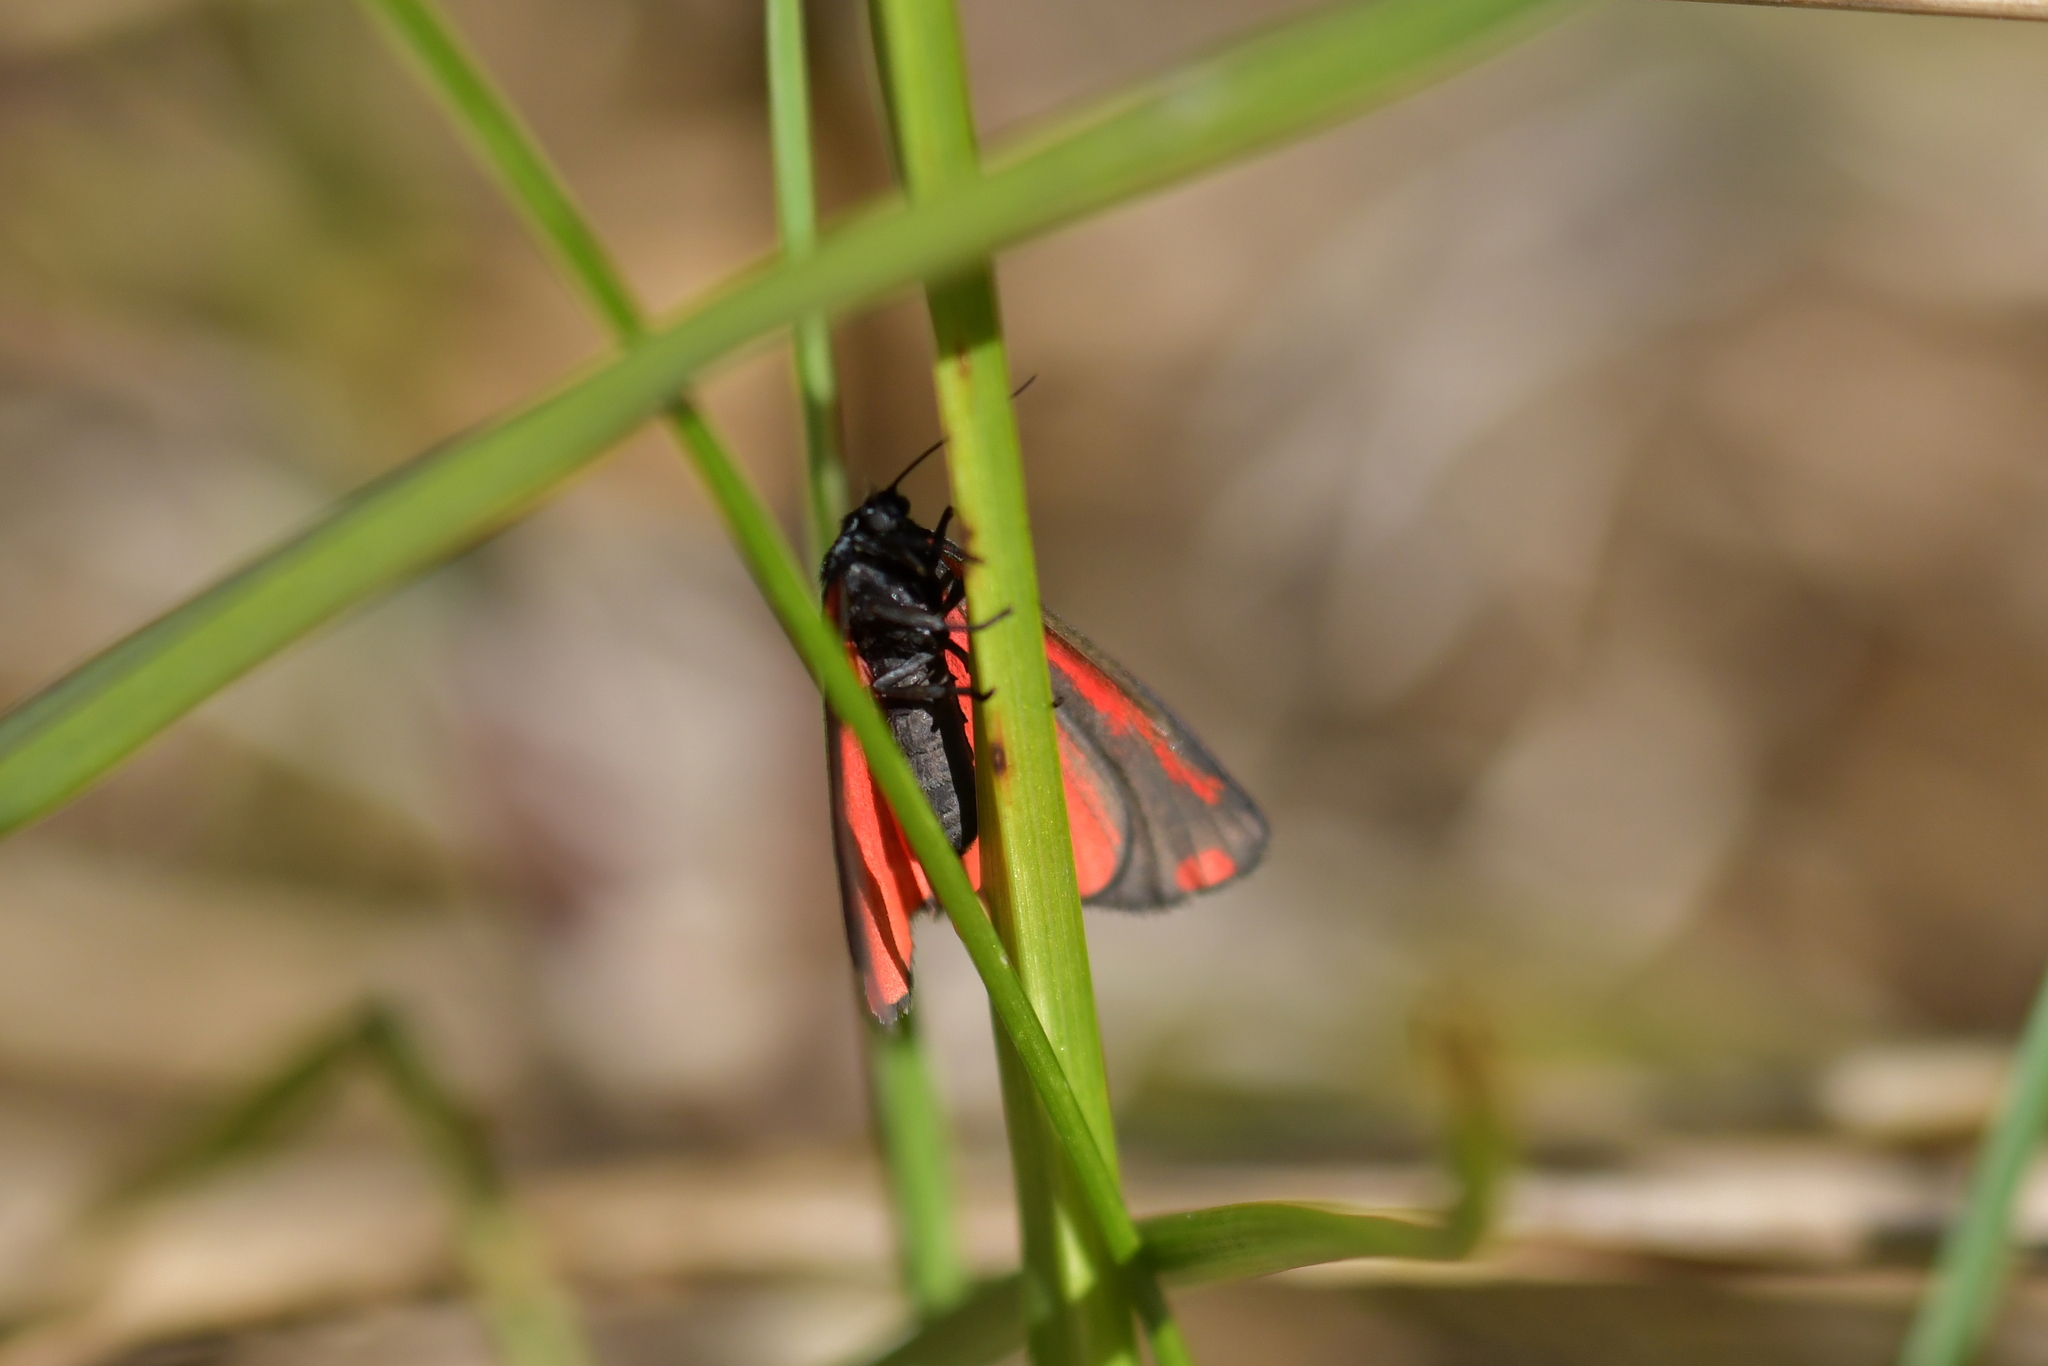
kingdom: Animalia
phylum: Arthropoda
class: Insecta
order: Lepidoptera
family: Erebidae
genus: Tyria
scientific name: Tyria jacobaeae
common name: Cinnabar
